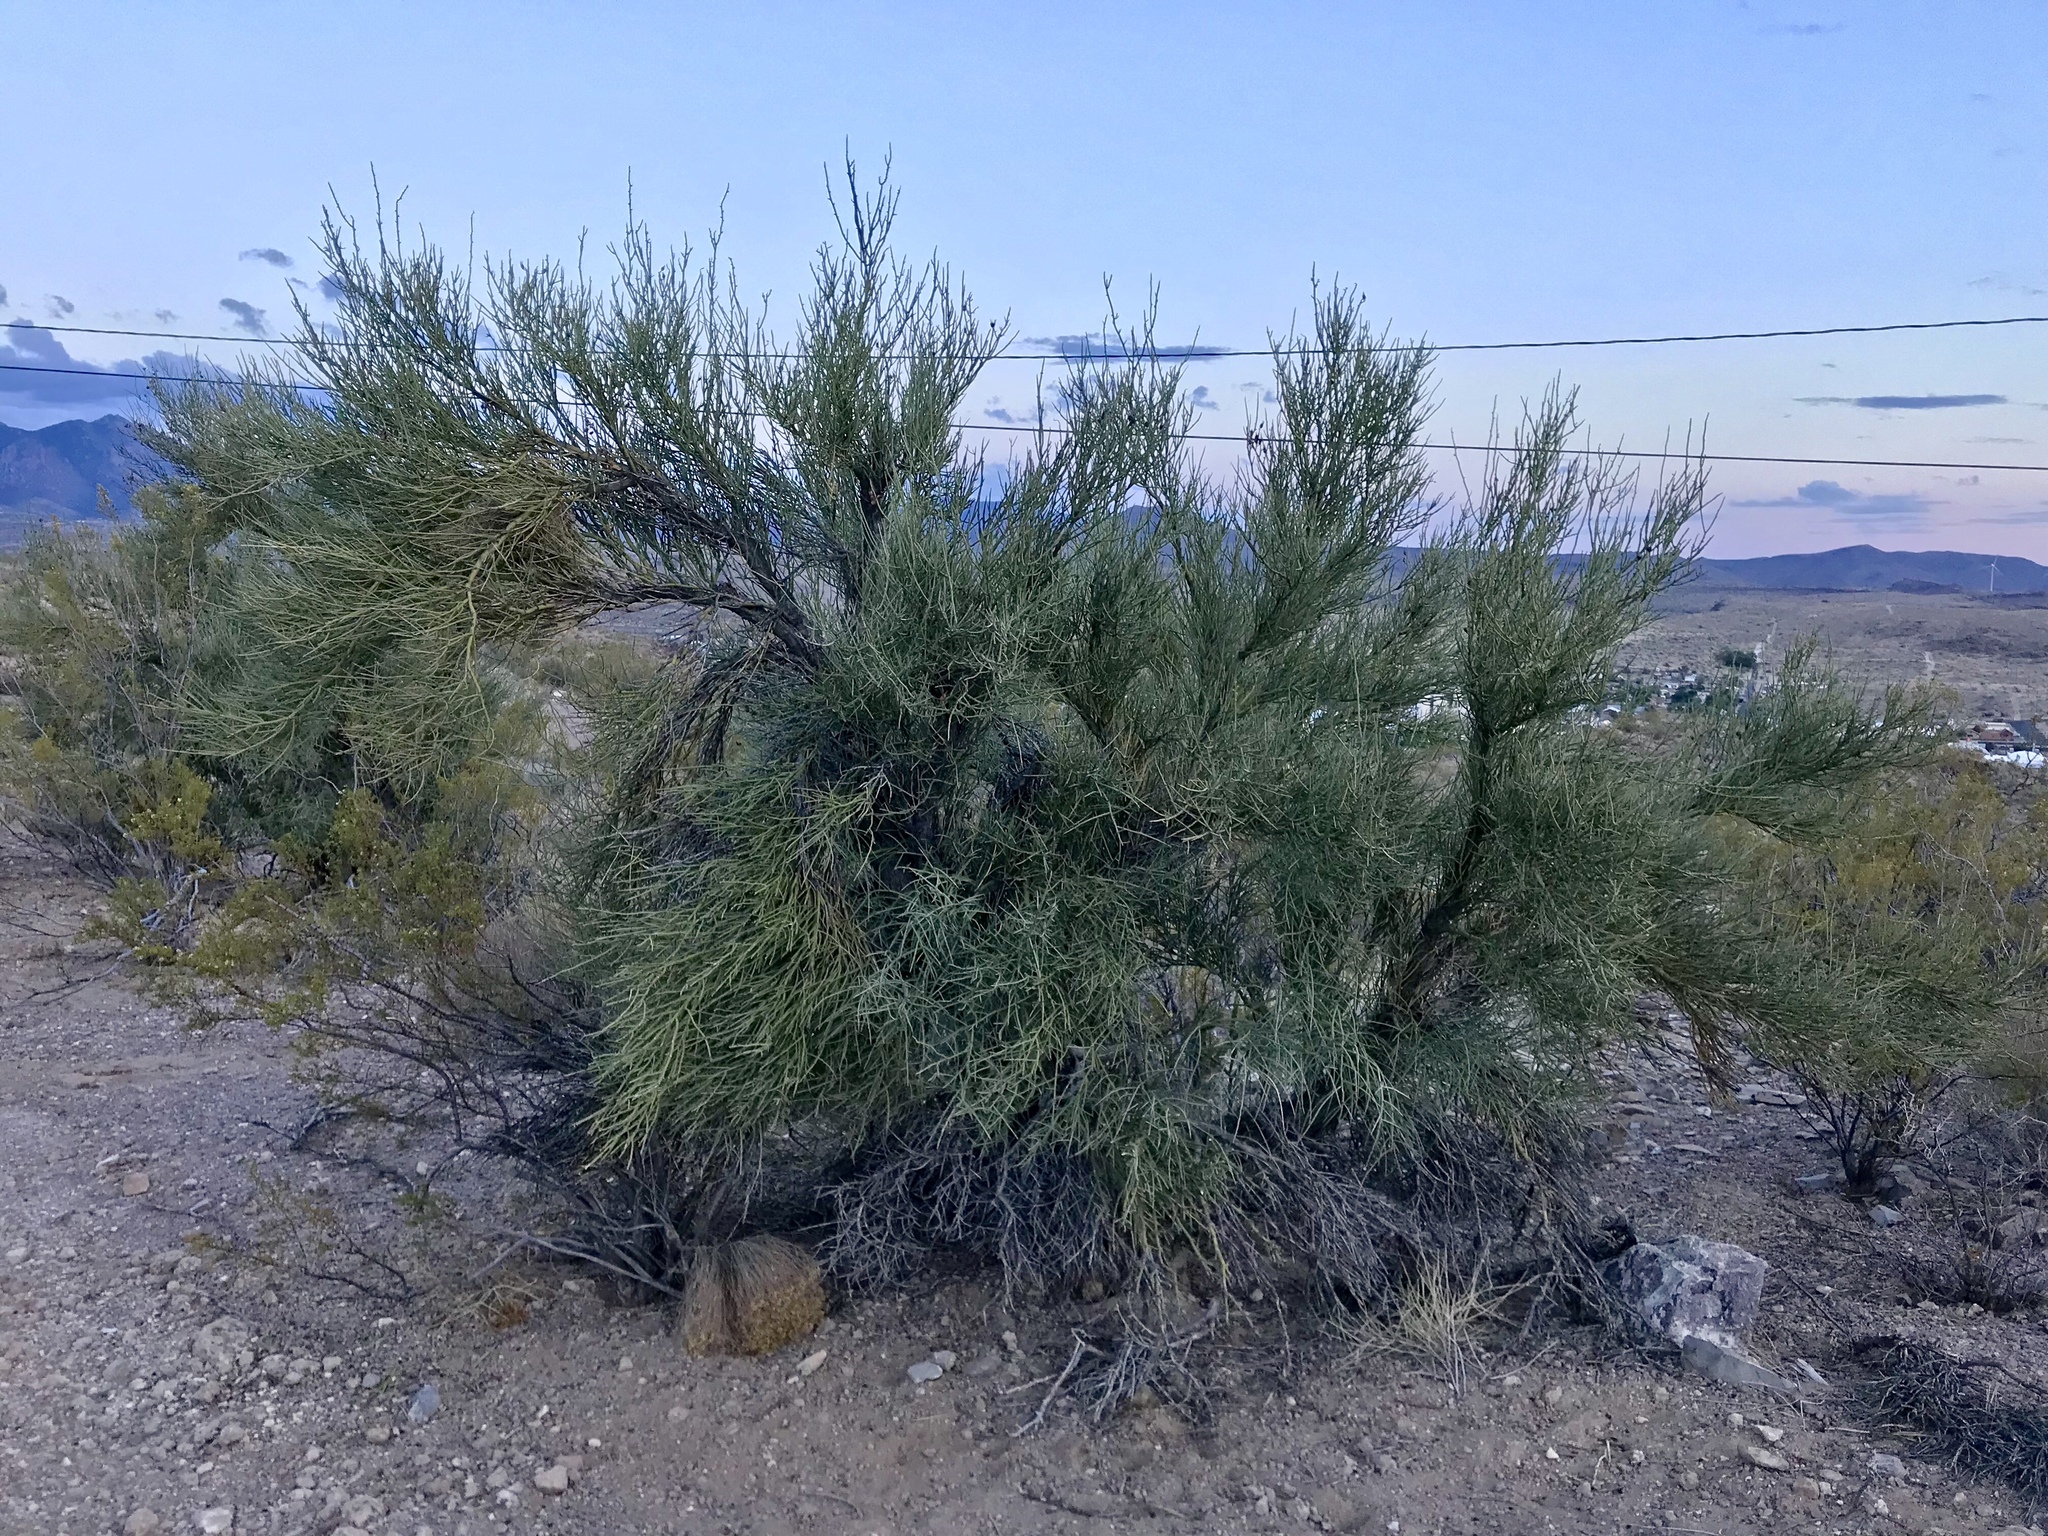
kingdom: Plantae
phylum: Tracheophyta
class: Magnoliopsida
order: Celastrales
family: Celastraceae
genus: Canotia
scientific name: Canotia holacantha
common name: Crucifixion thorns
